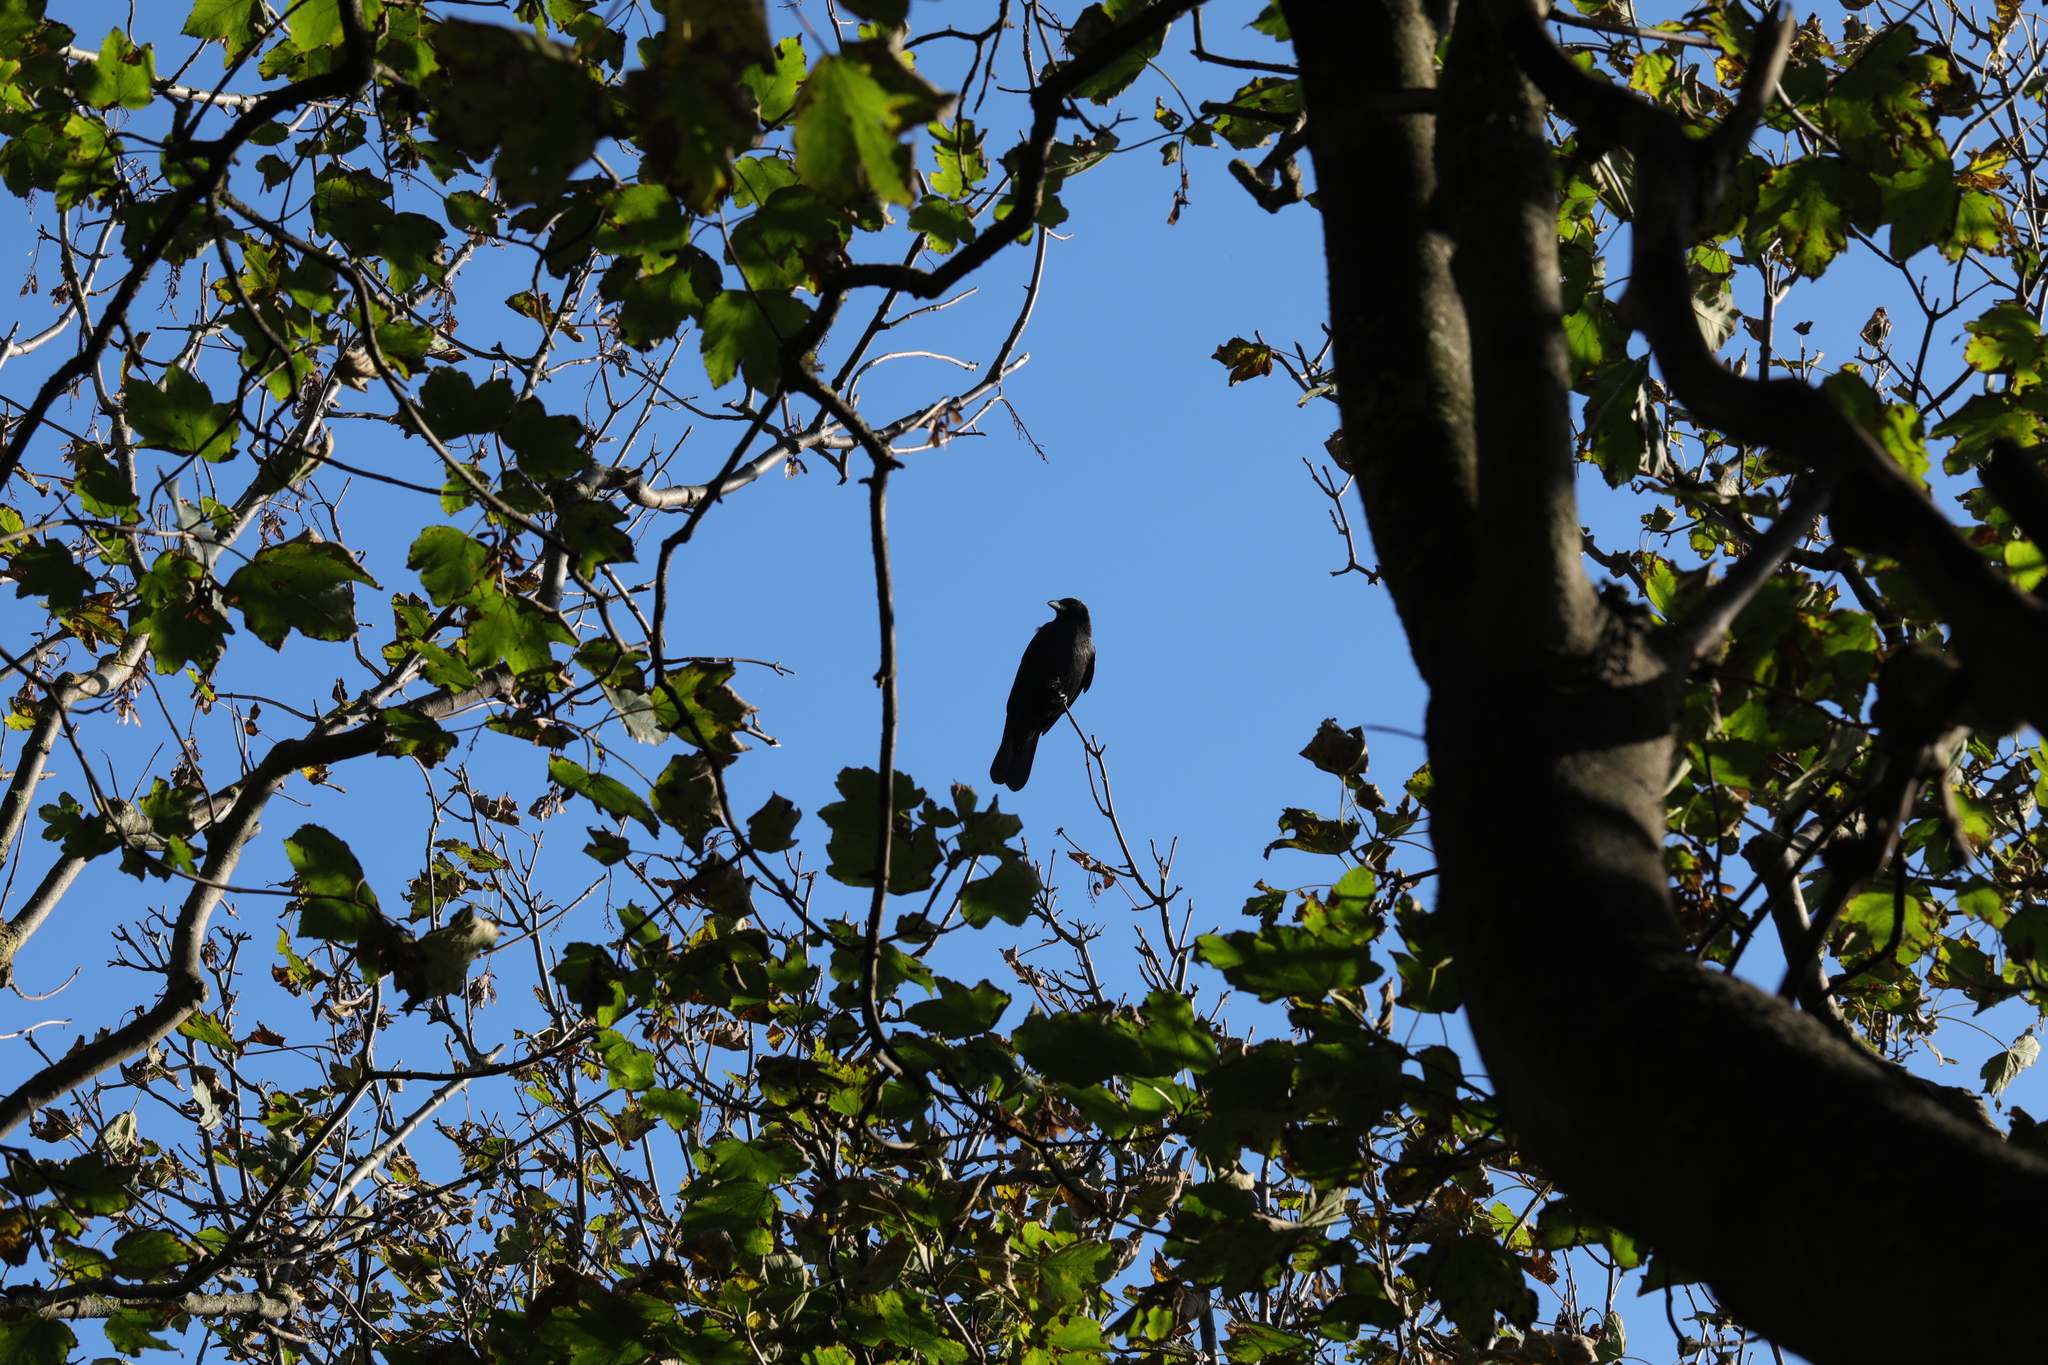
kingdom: Animalia
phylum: Chordata
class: Aves
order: Passeriformes
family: Corvidae
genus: Corvus
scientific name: Corvus corone
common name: Carrion crow
